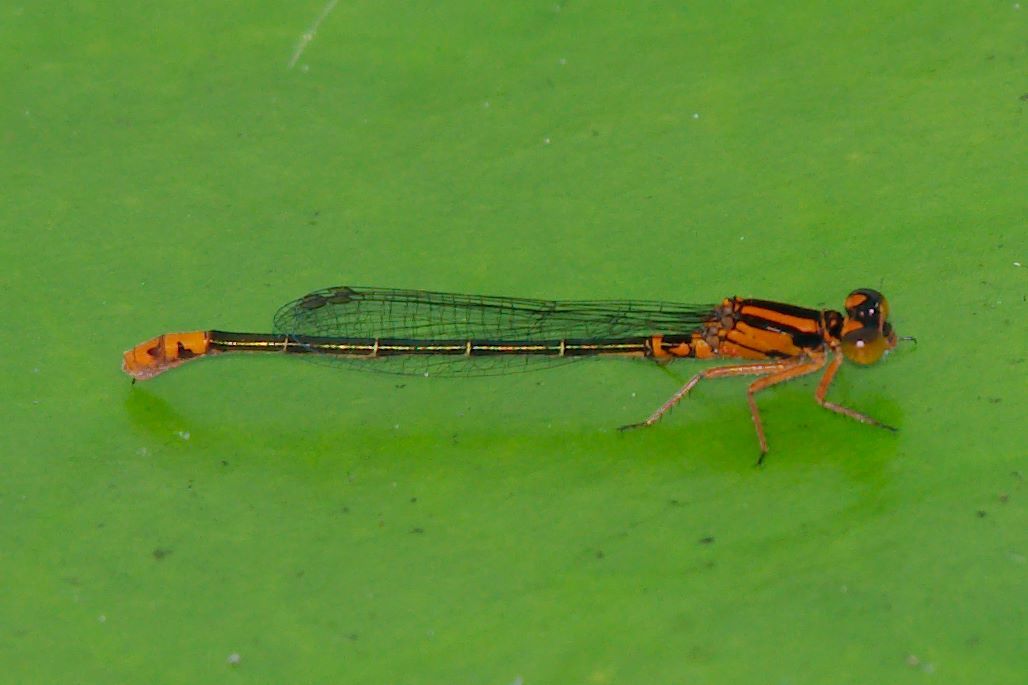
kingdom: Animalia
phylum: Arthropoda
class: Insecta
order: Odonata
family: Coenagrionidae
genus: Ischnura
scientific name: Ischnura kellicotti
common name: Lilypad forktail
